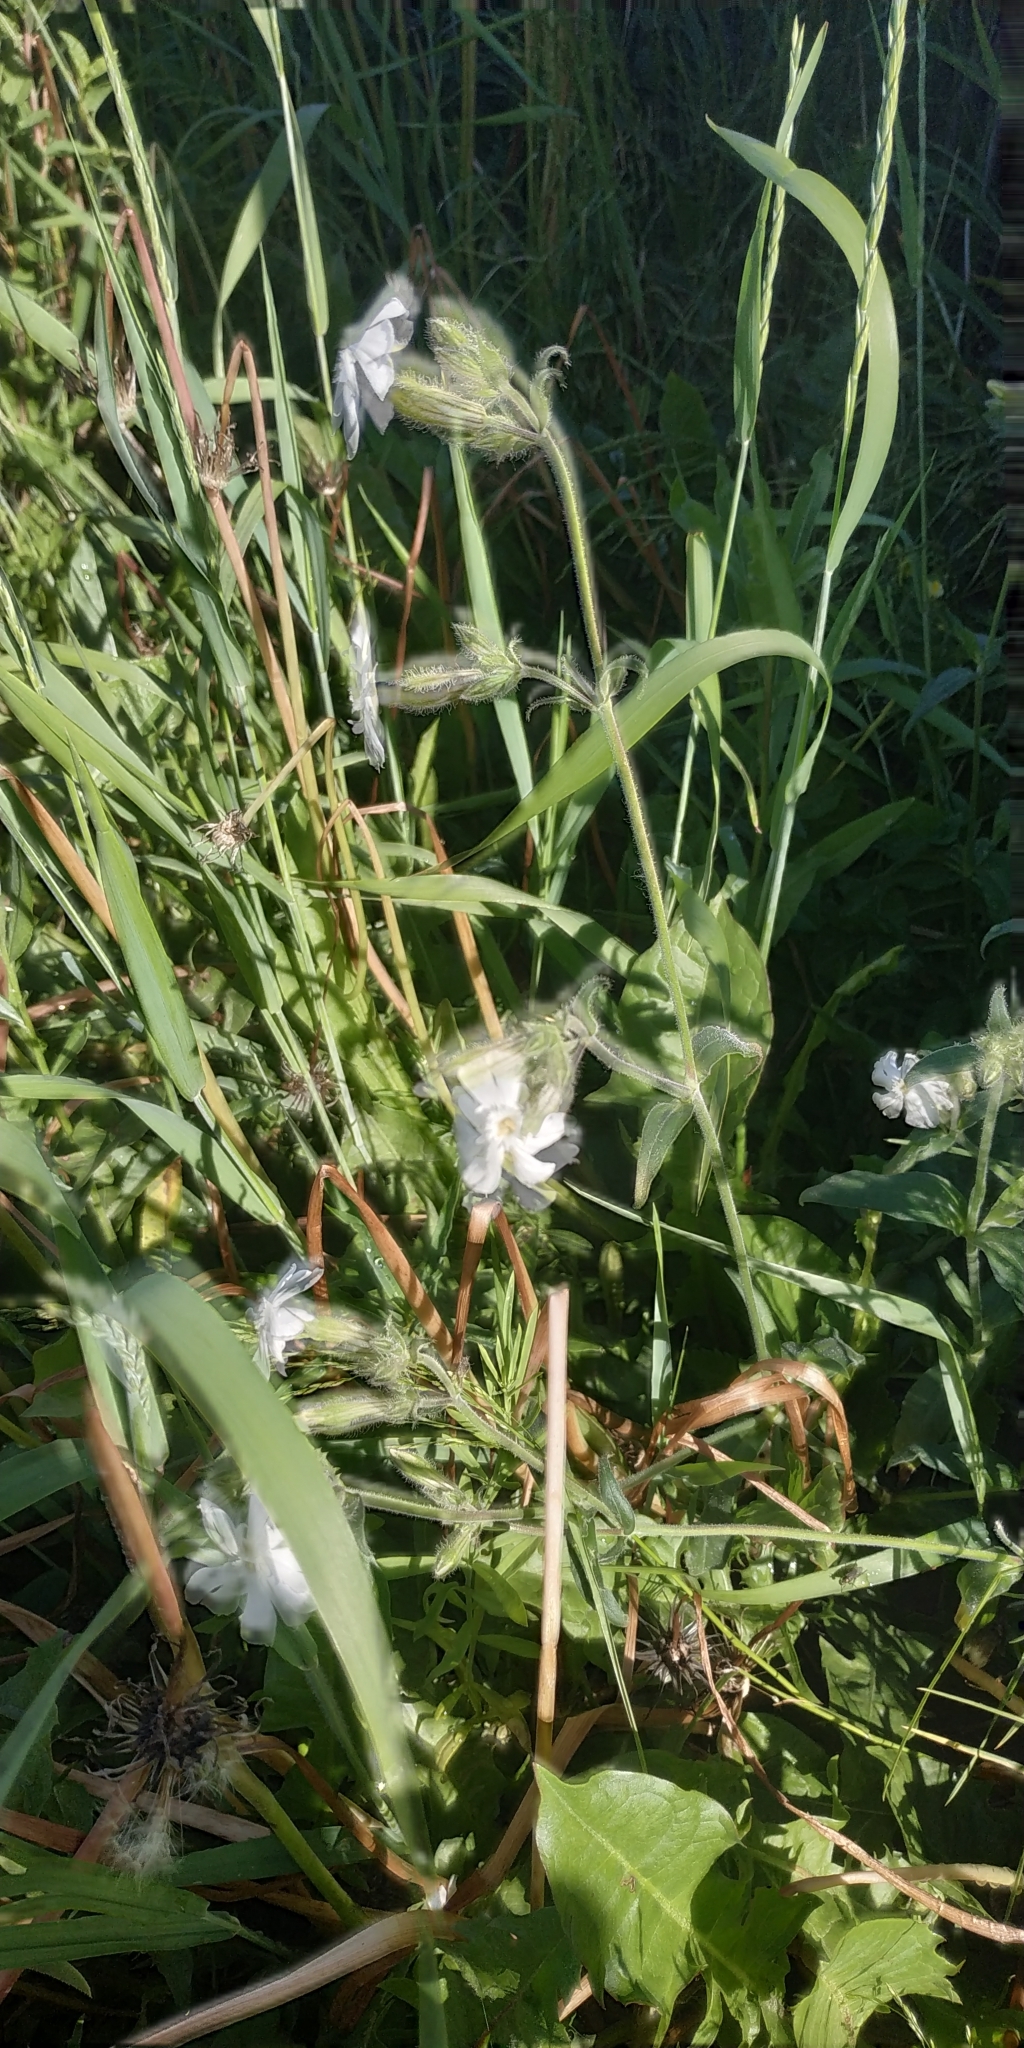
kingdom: Plantae
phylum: Tracheophyta
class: Magnoliopsida
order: Caryophyllales
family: Caryophyllaceae
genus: Silene
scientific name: Silene latifolia
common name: White campion
